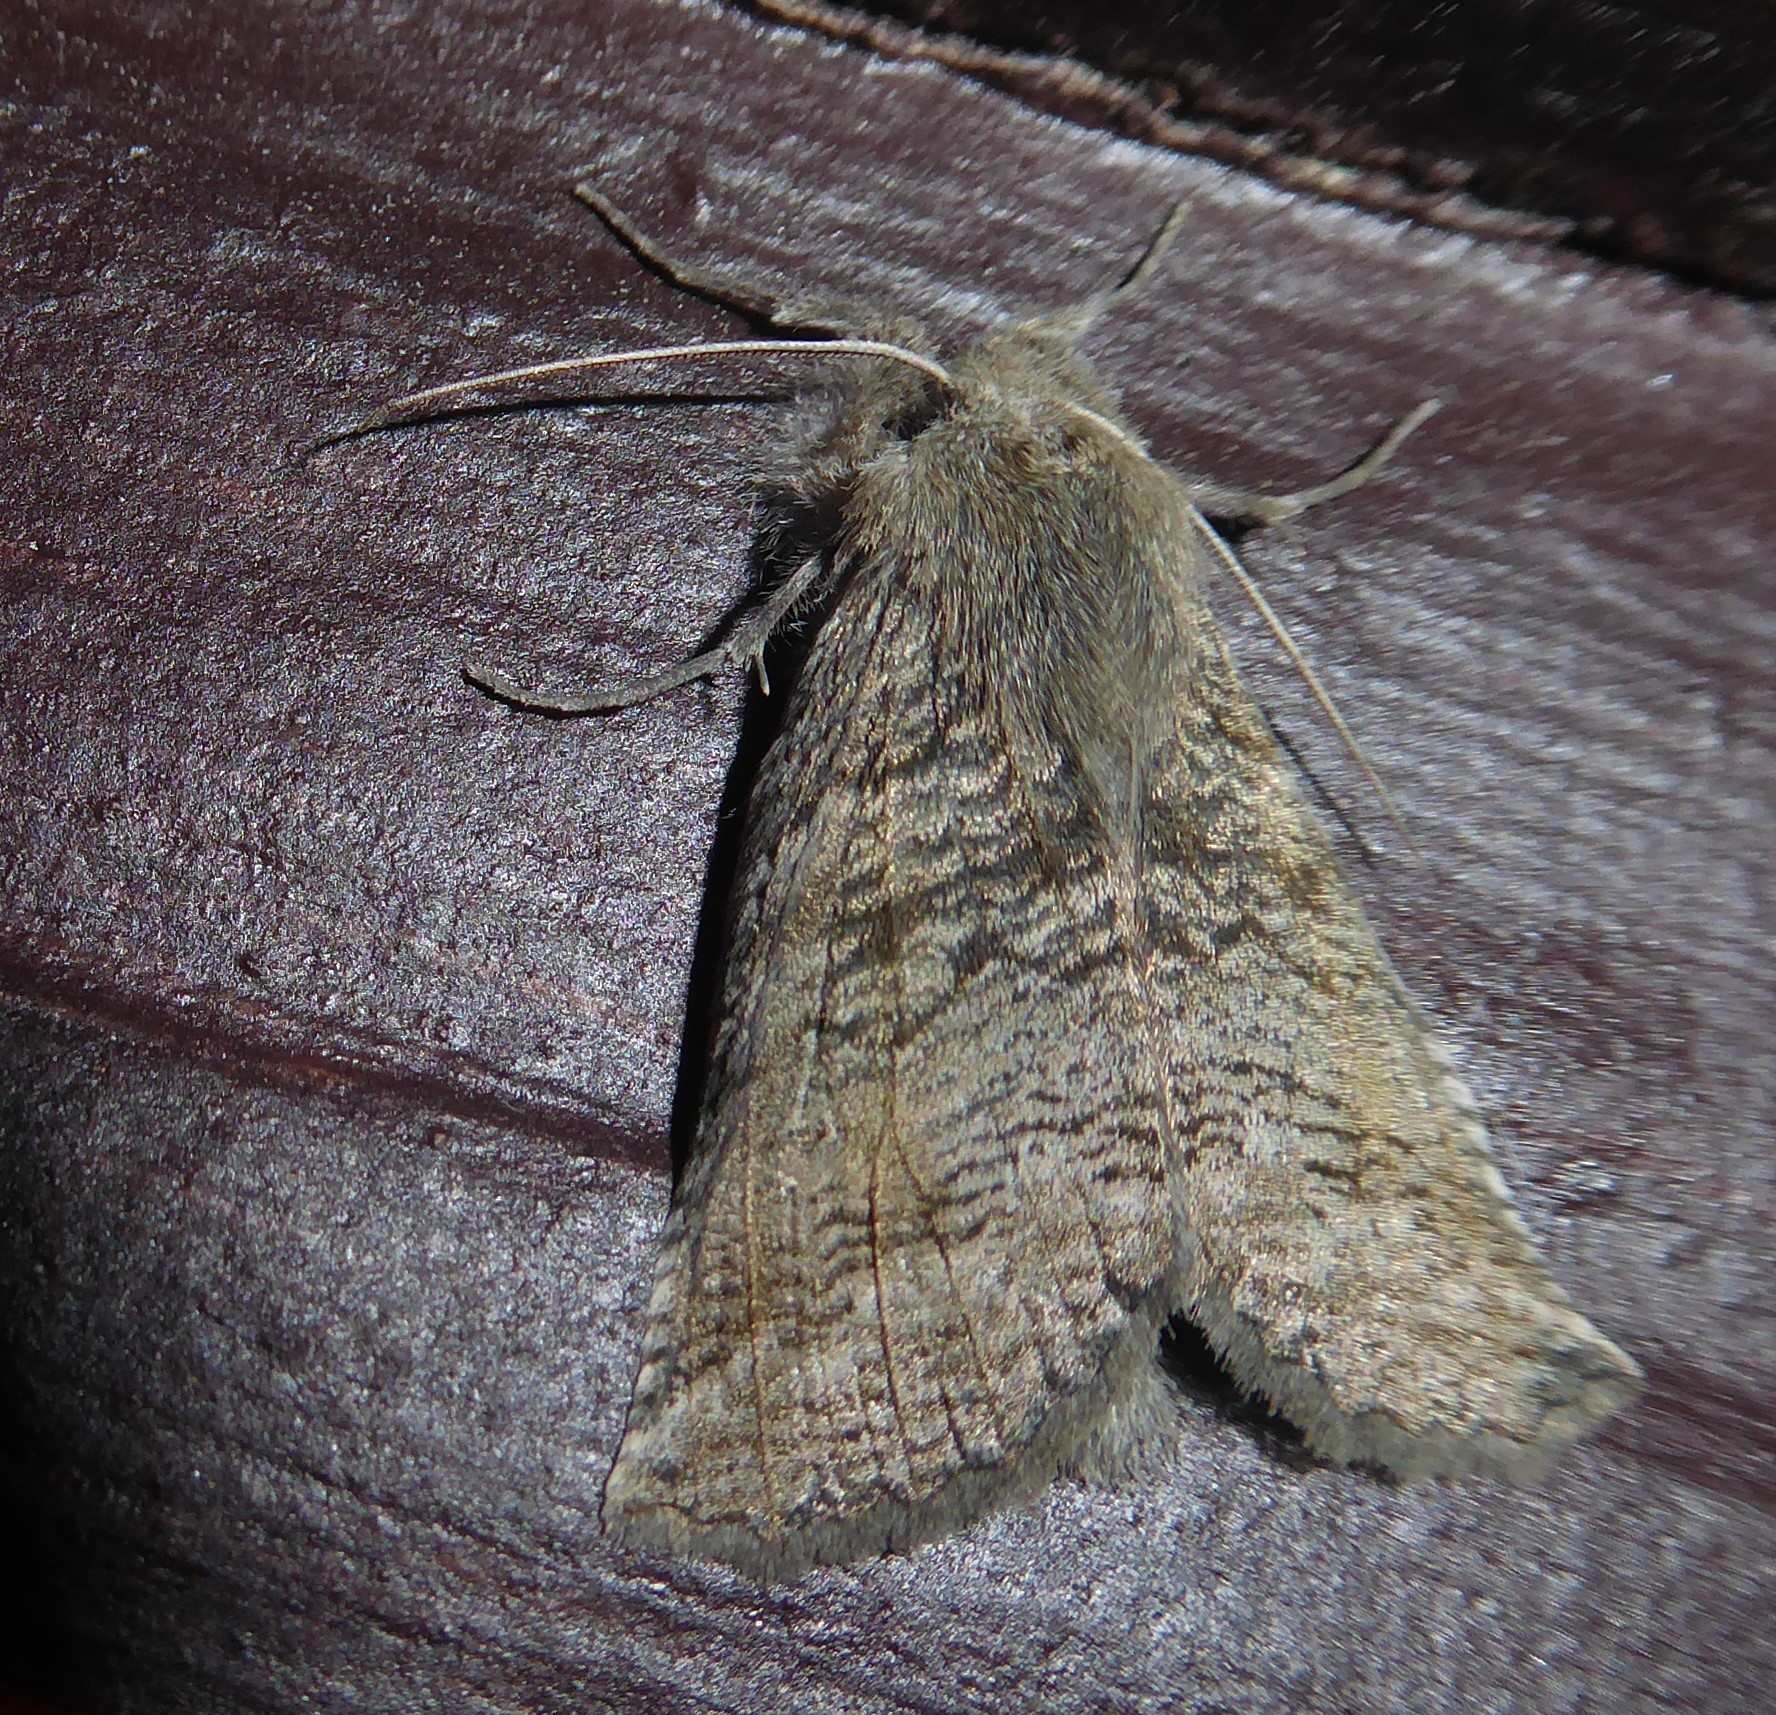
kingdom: Animalia
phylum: Arthropoda
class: Insecta
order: Lepidoptera
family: Geometridae
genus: Declana
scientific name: Declana
